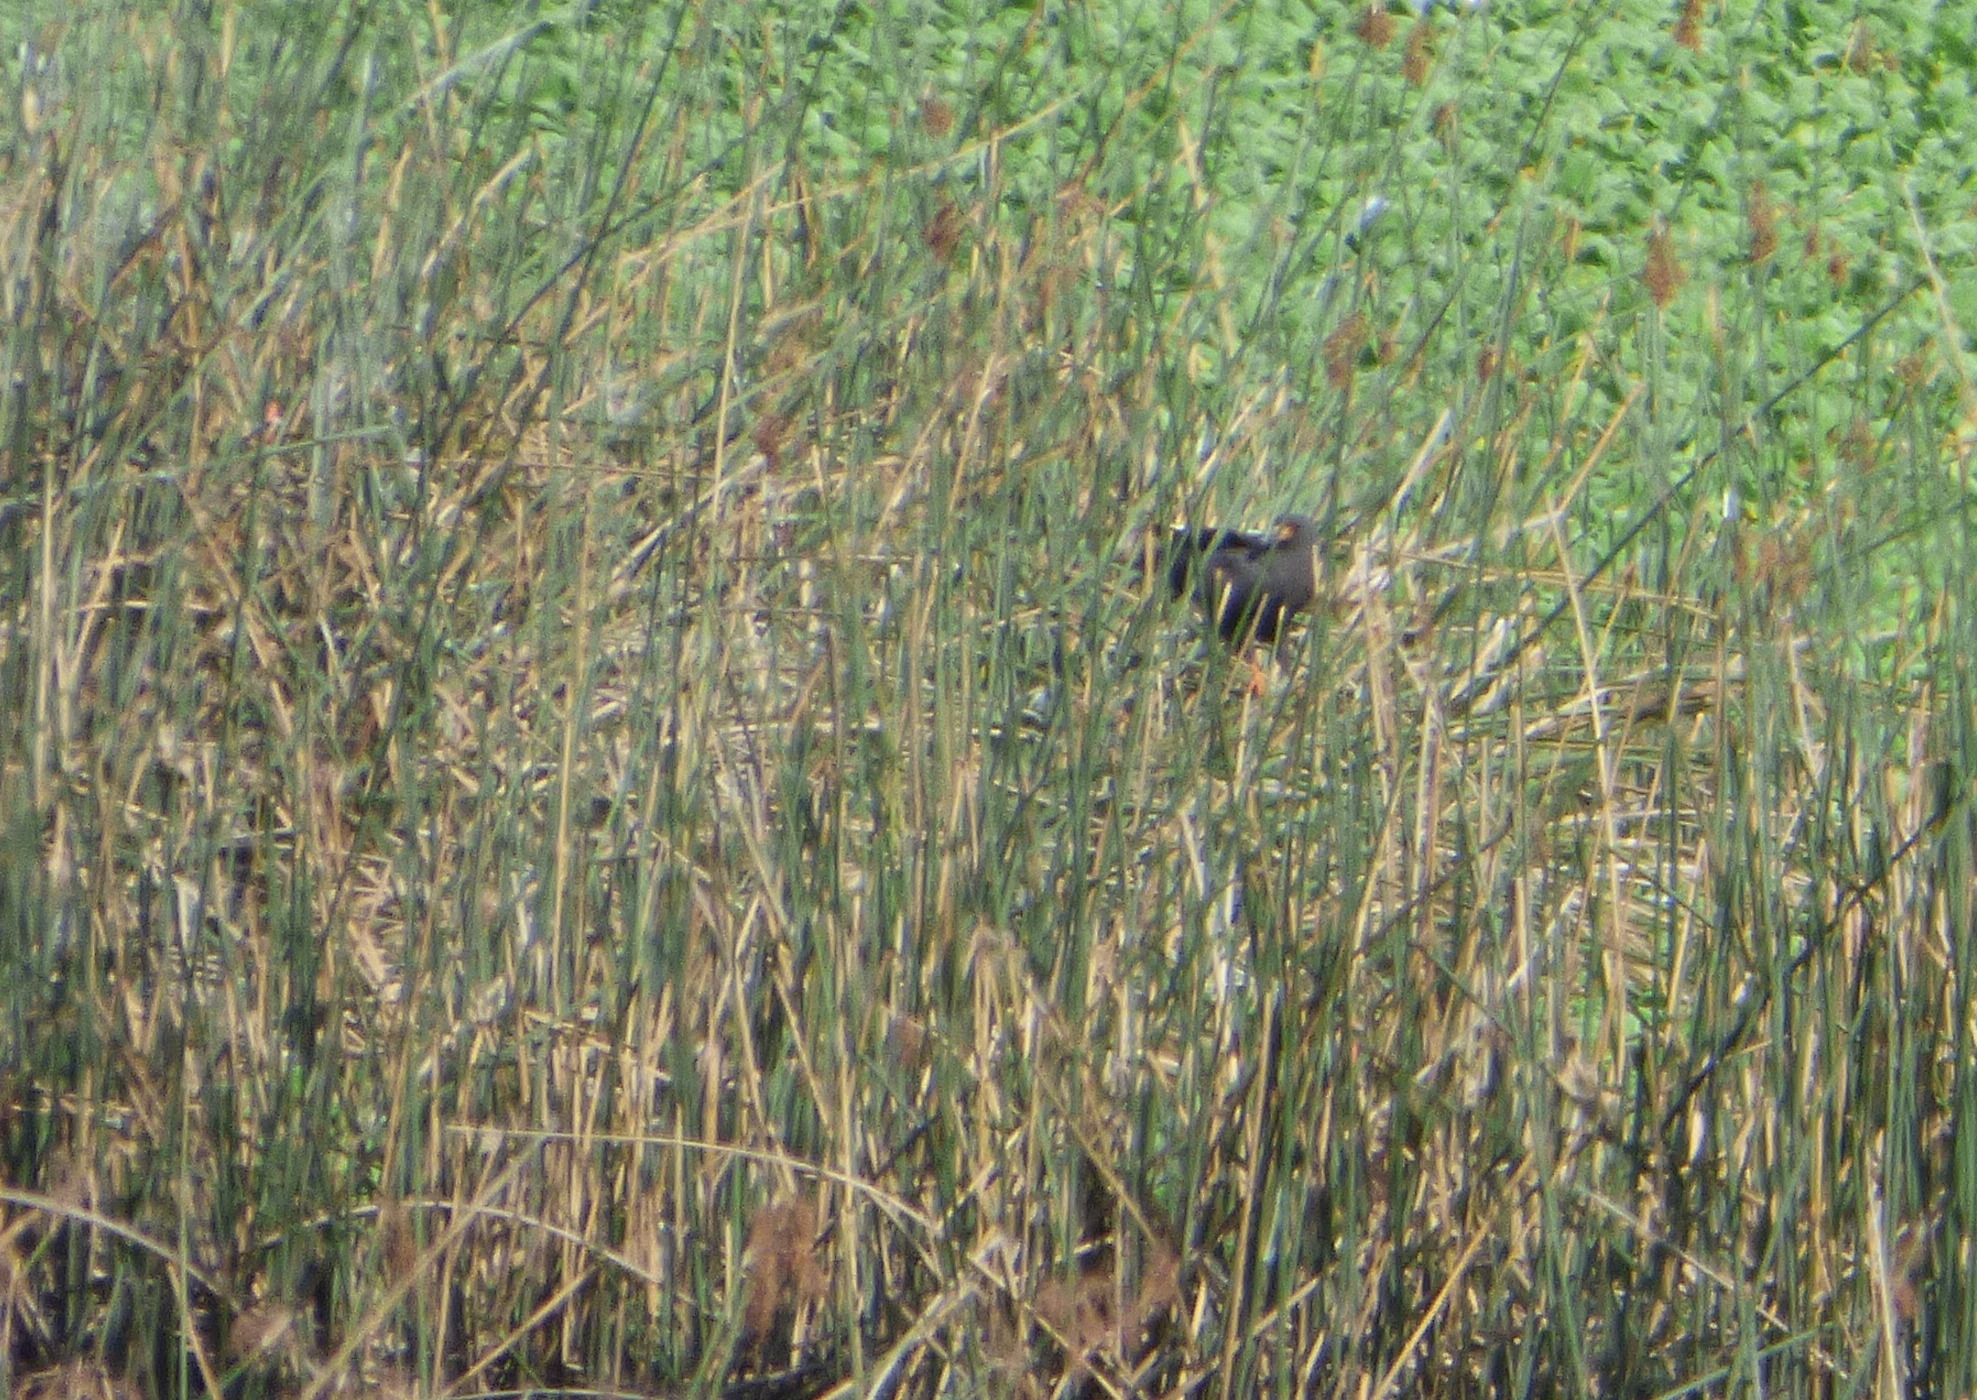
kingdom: Animalia
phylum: Chordata
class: Aves
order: Accipitriformes
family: Accipitridae
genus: Rostrhamus
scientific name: Rostrhamus sociabilis
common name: Snail kite
